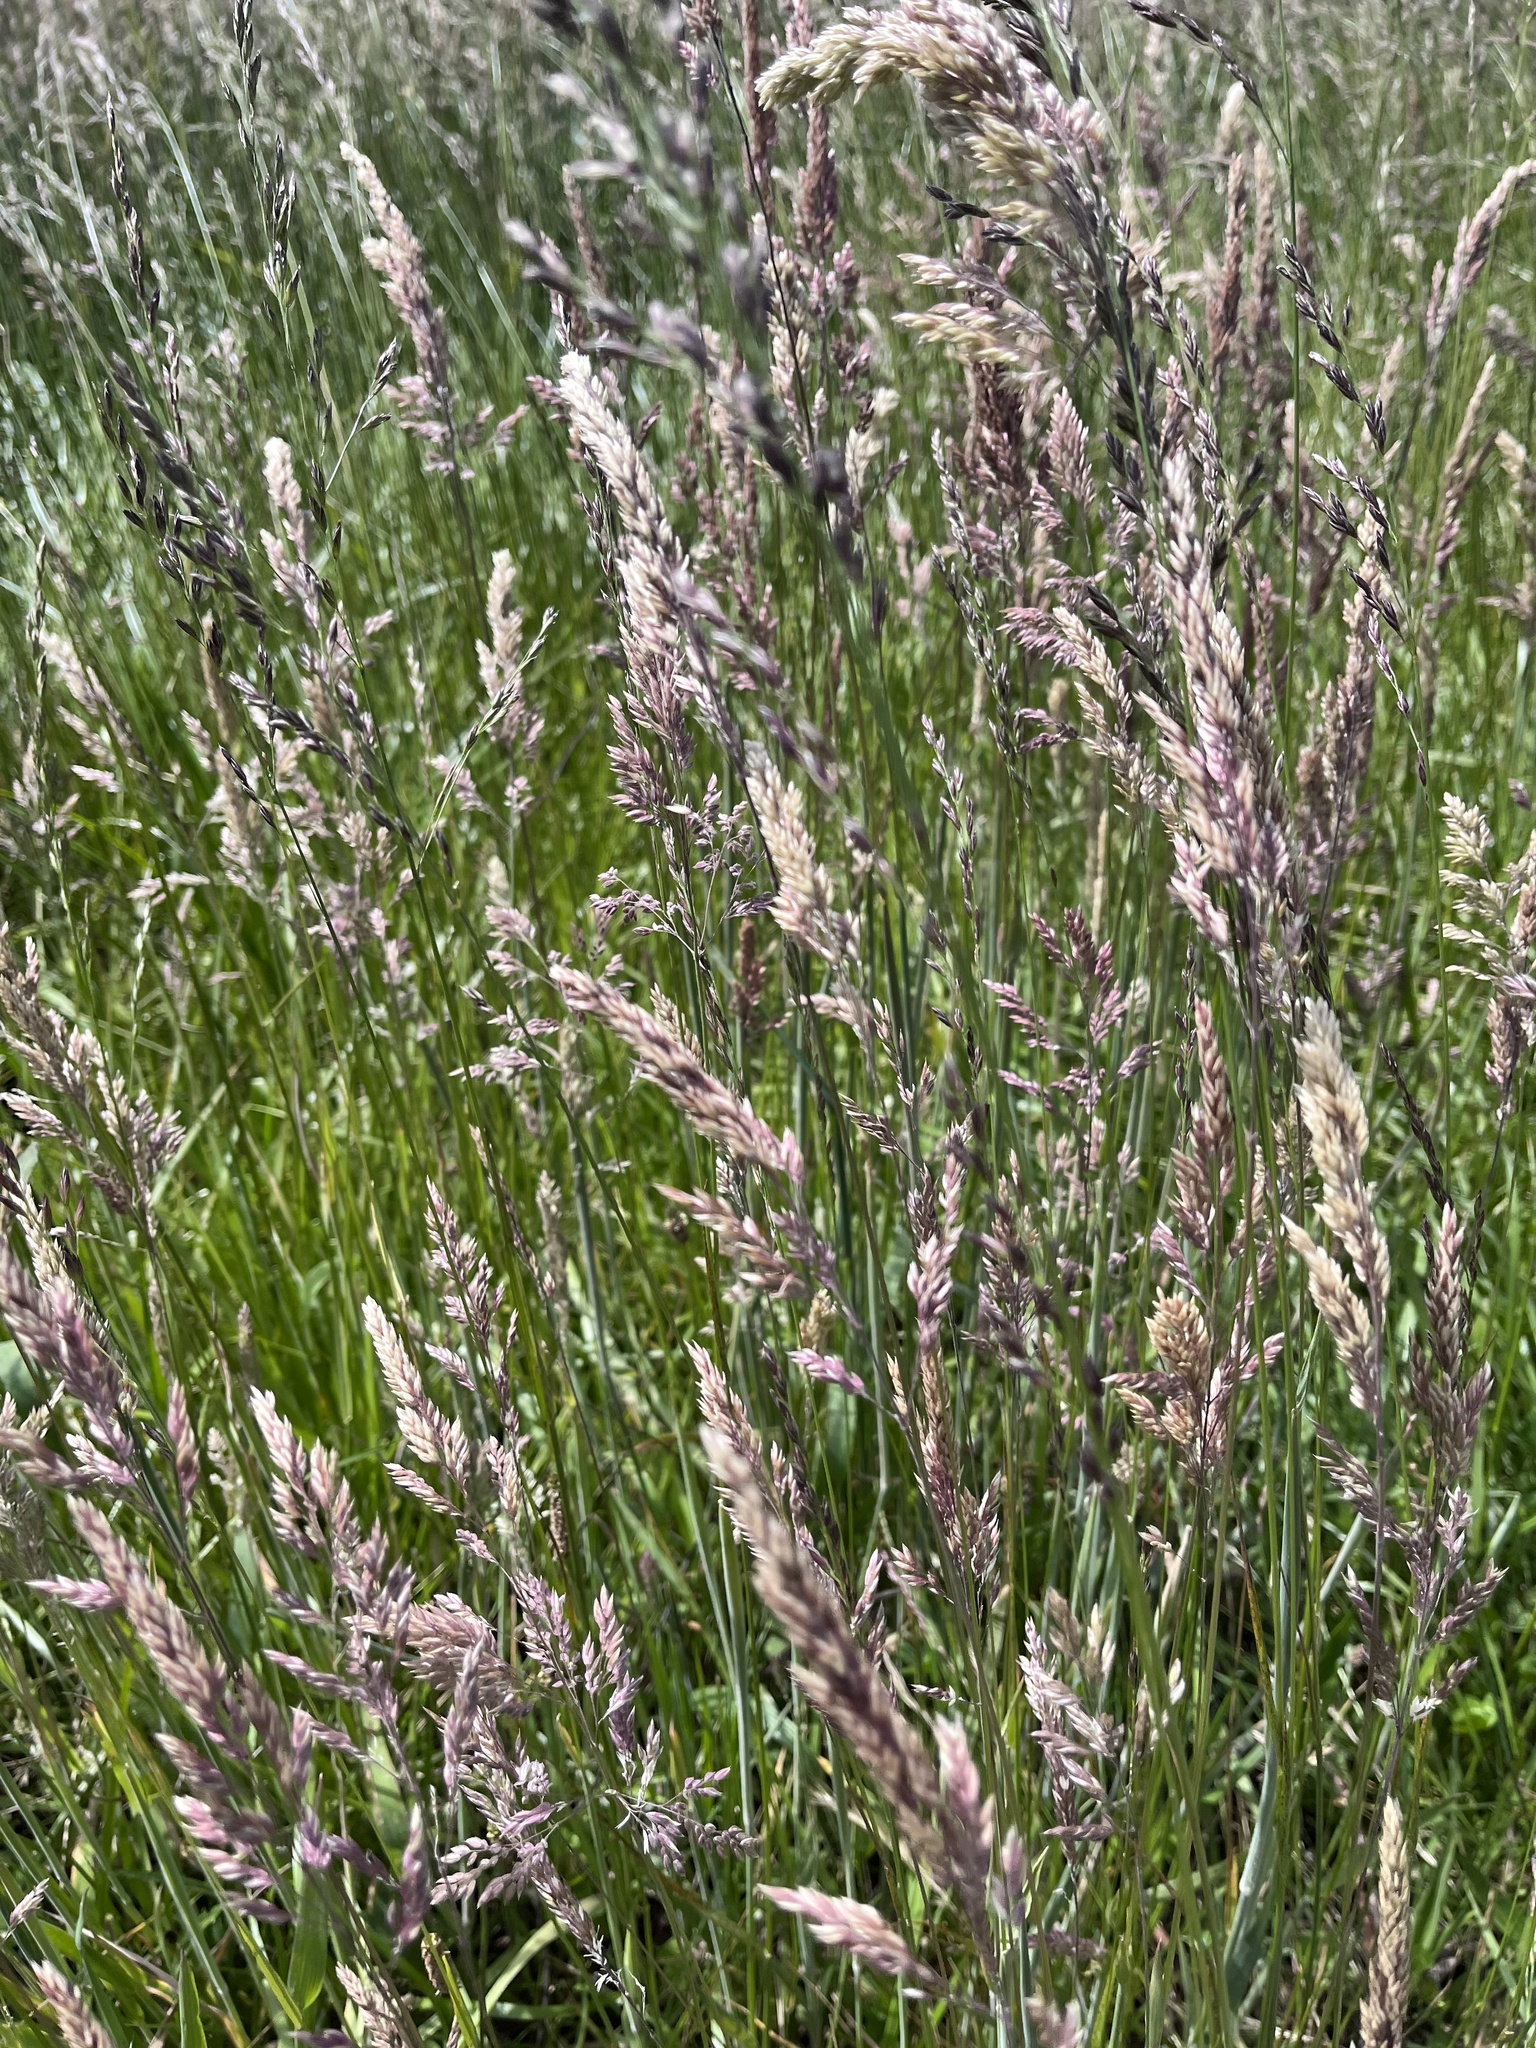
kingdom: Plantae
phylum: Tracheophyta
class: Liliopsida
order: Poales
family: Poaceae
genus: Holcus
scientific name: Holcus lanatus
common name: Yorkshire-fog
